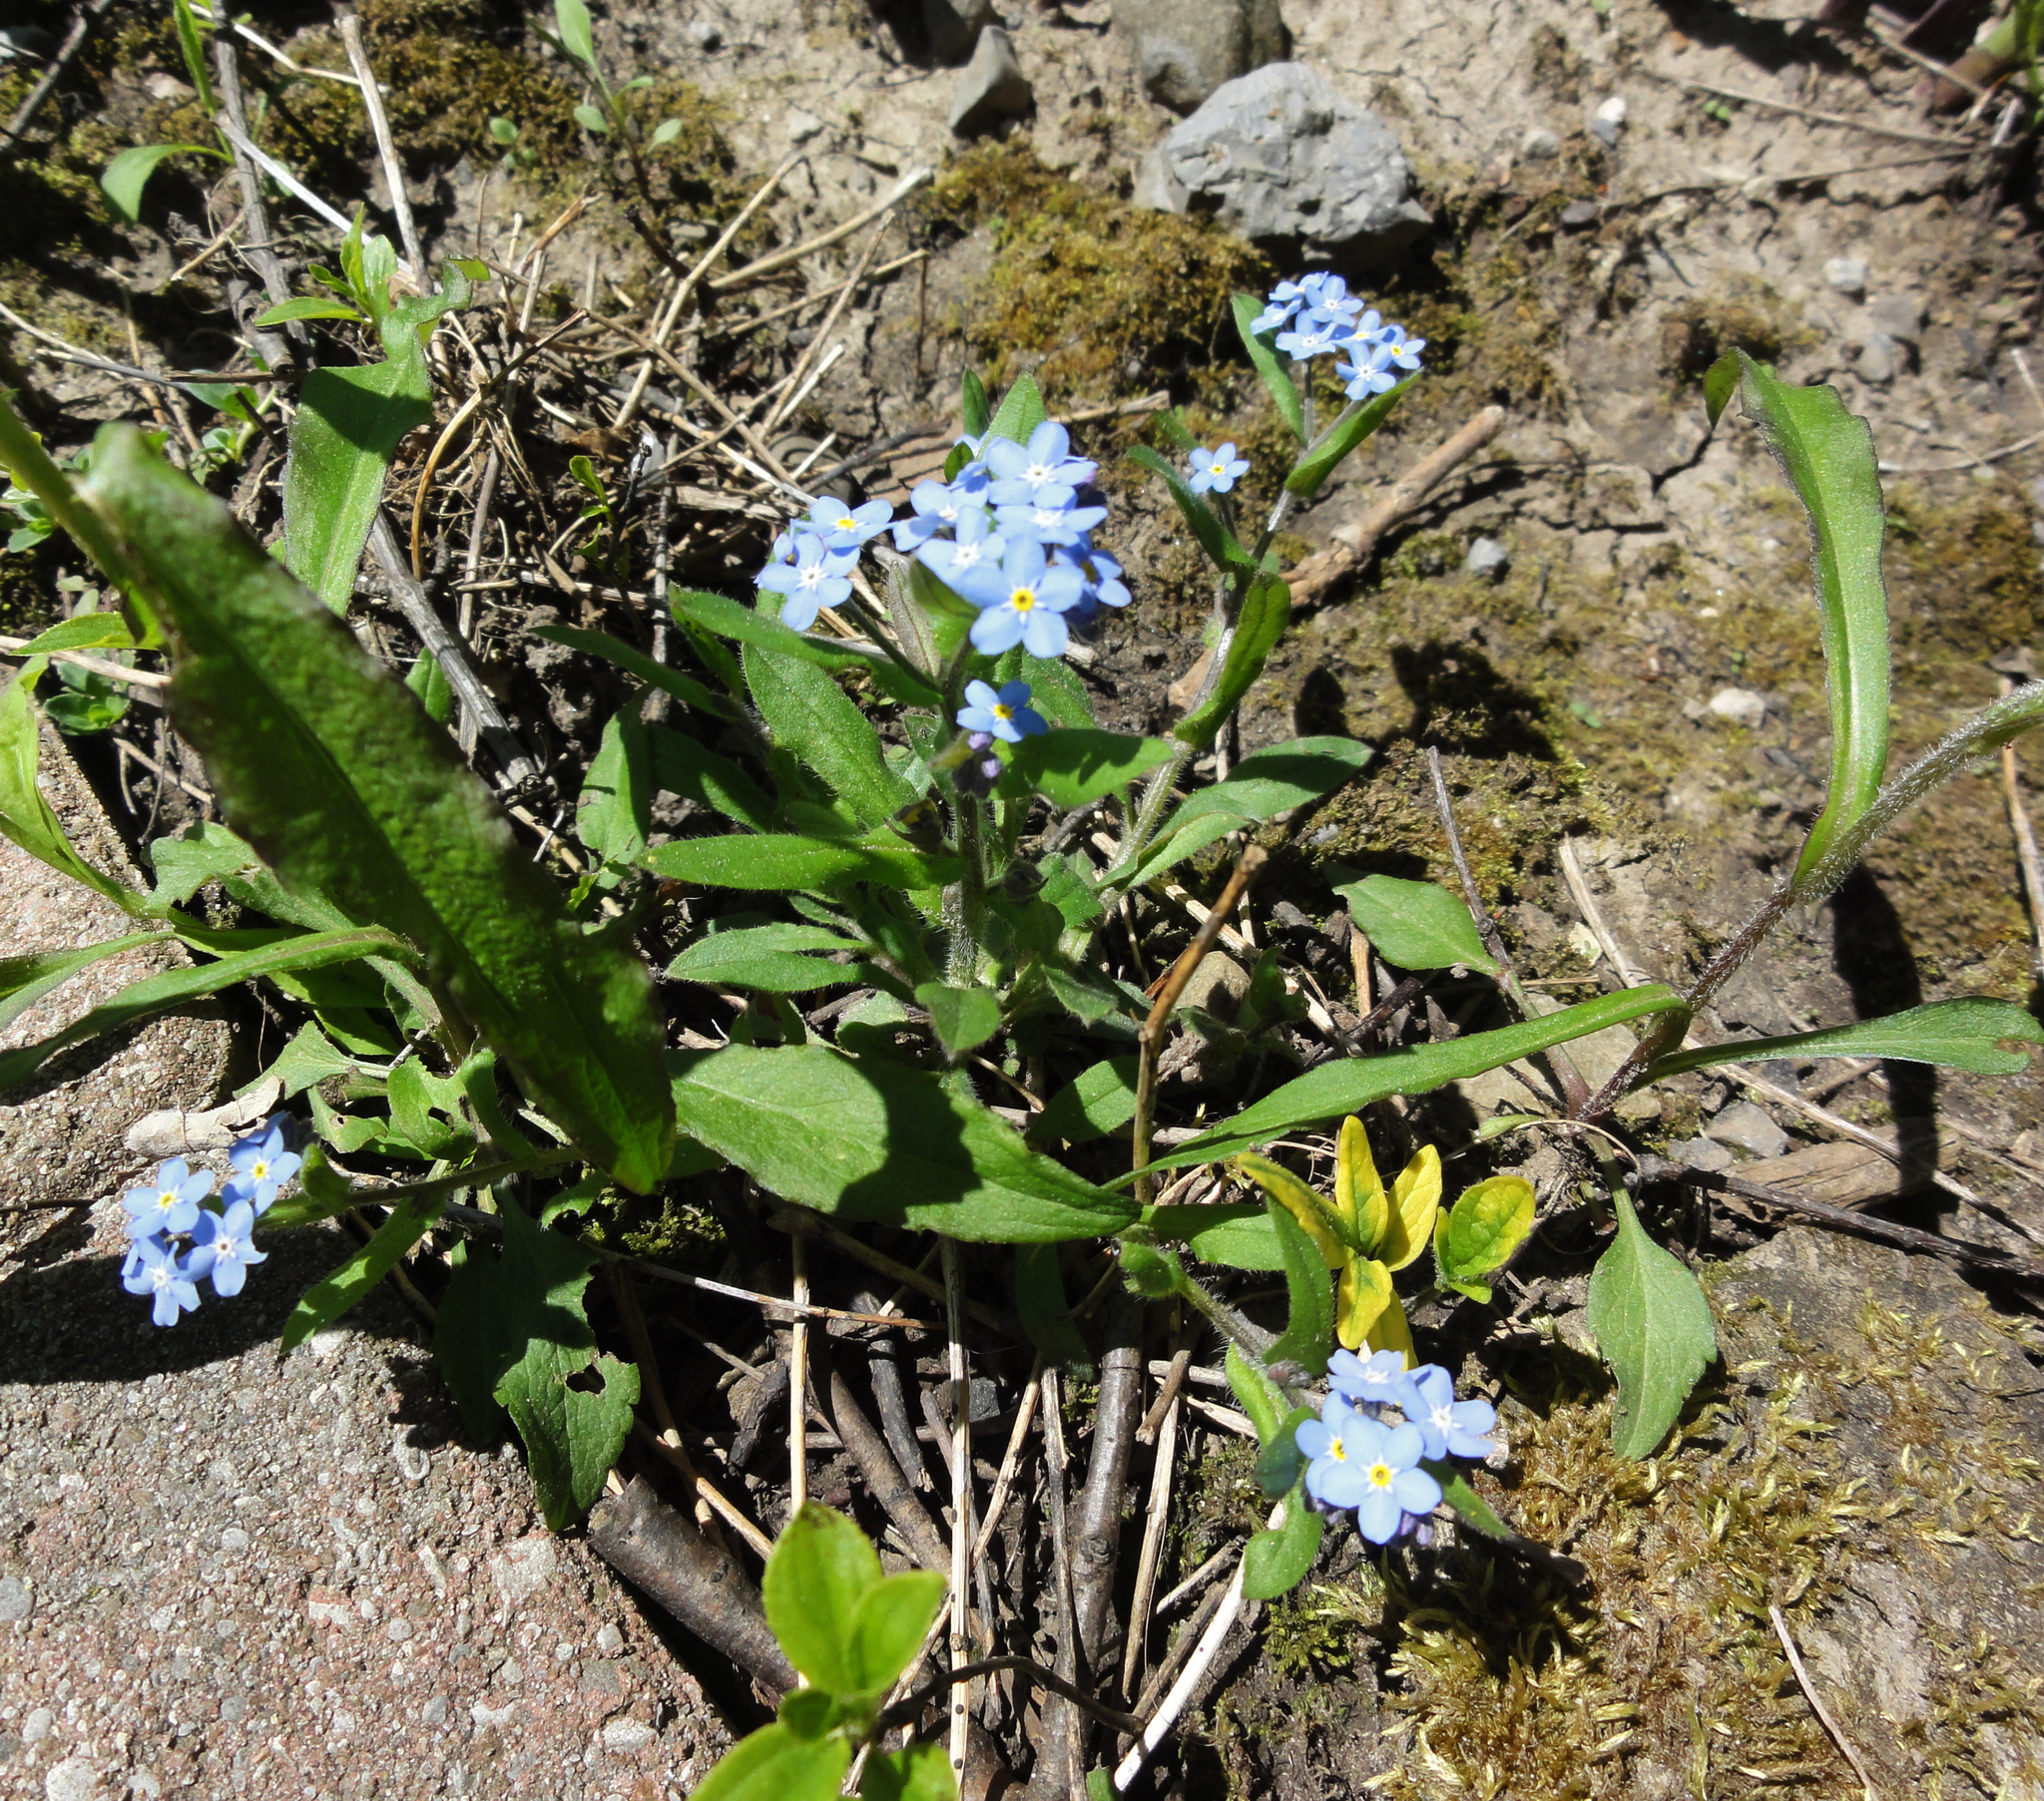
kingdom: Plantae
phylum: Tracheophyta
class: Magnoliopsida
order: Boraginales
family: Boraginaceae
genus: Myosotis
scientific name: Myosotis sylvatica
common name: Wood forget-me-not
